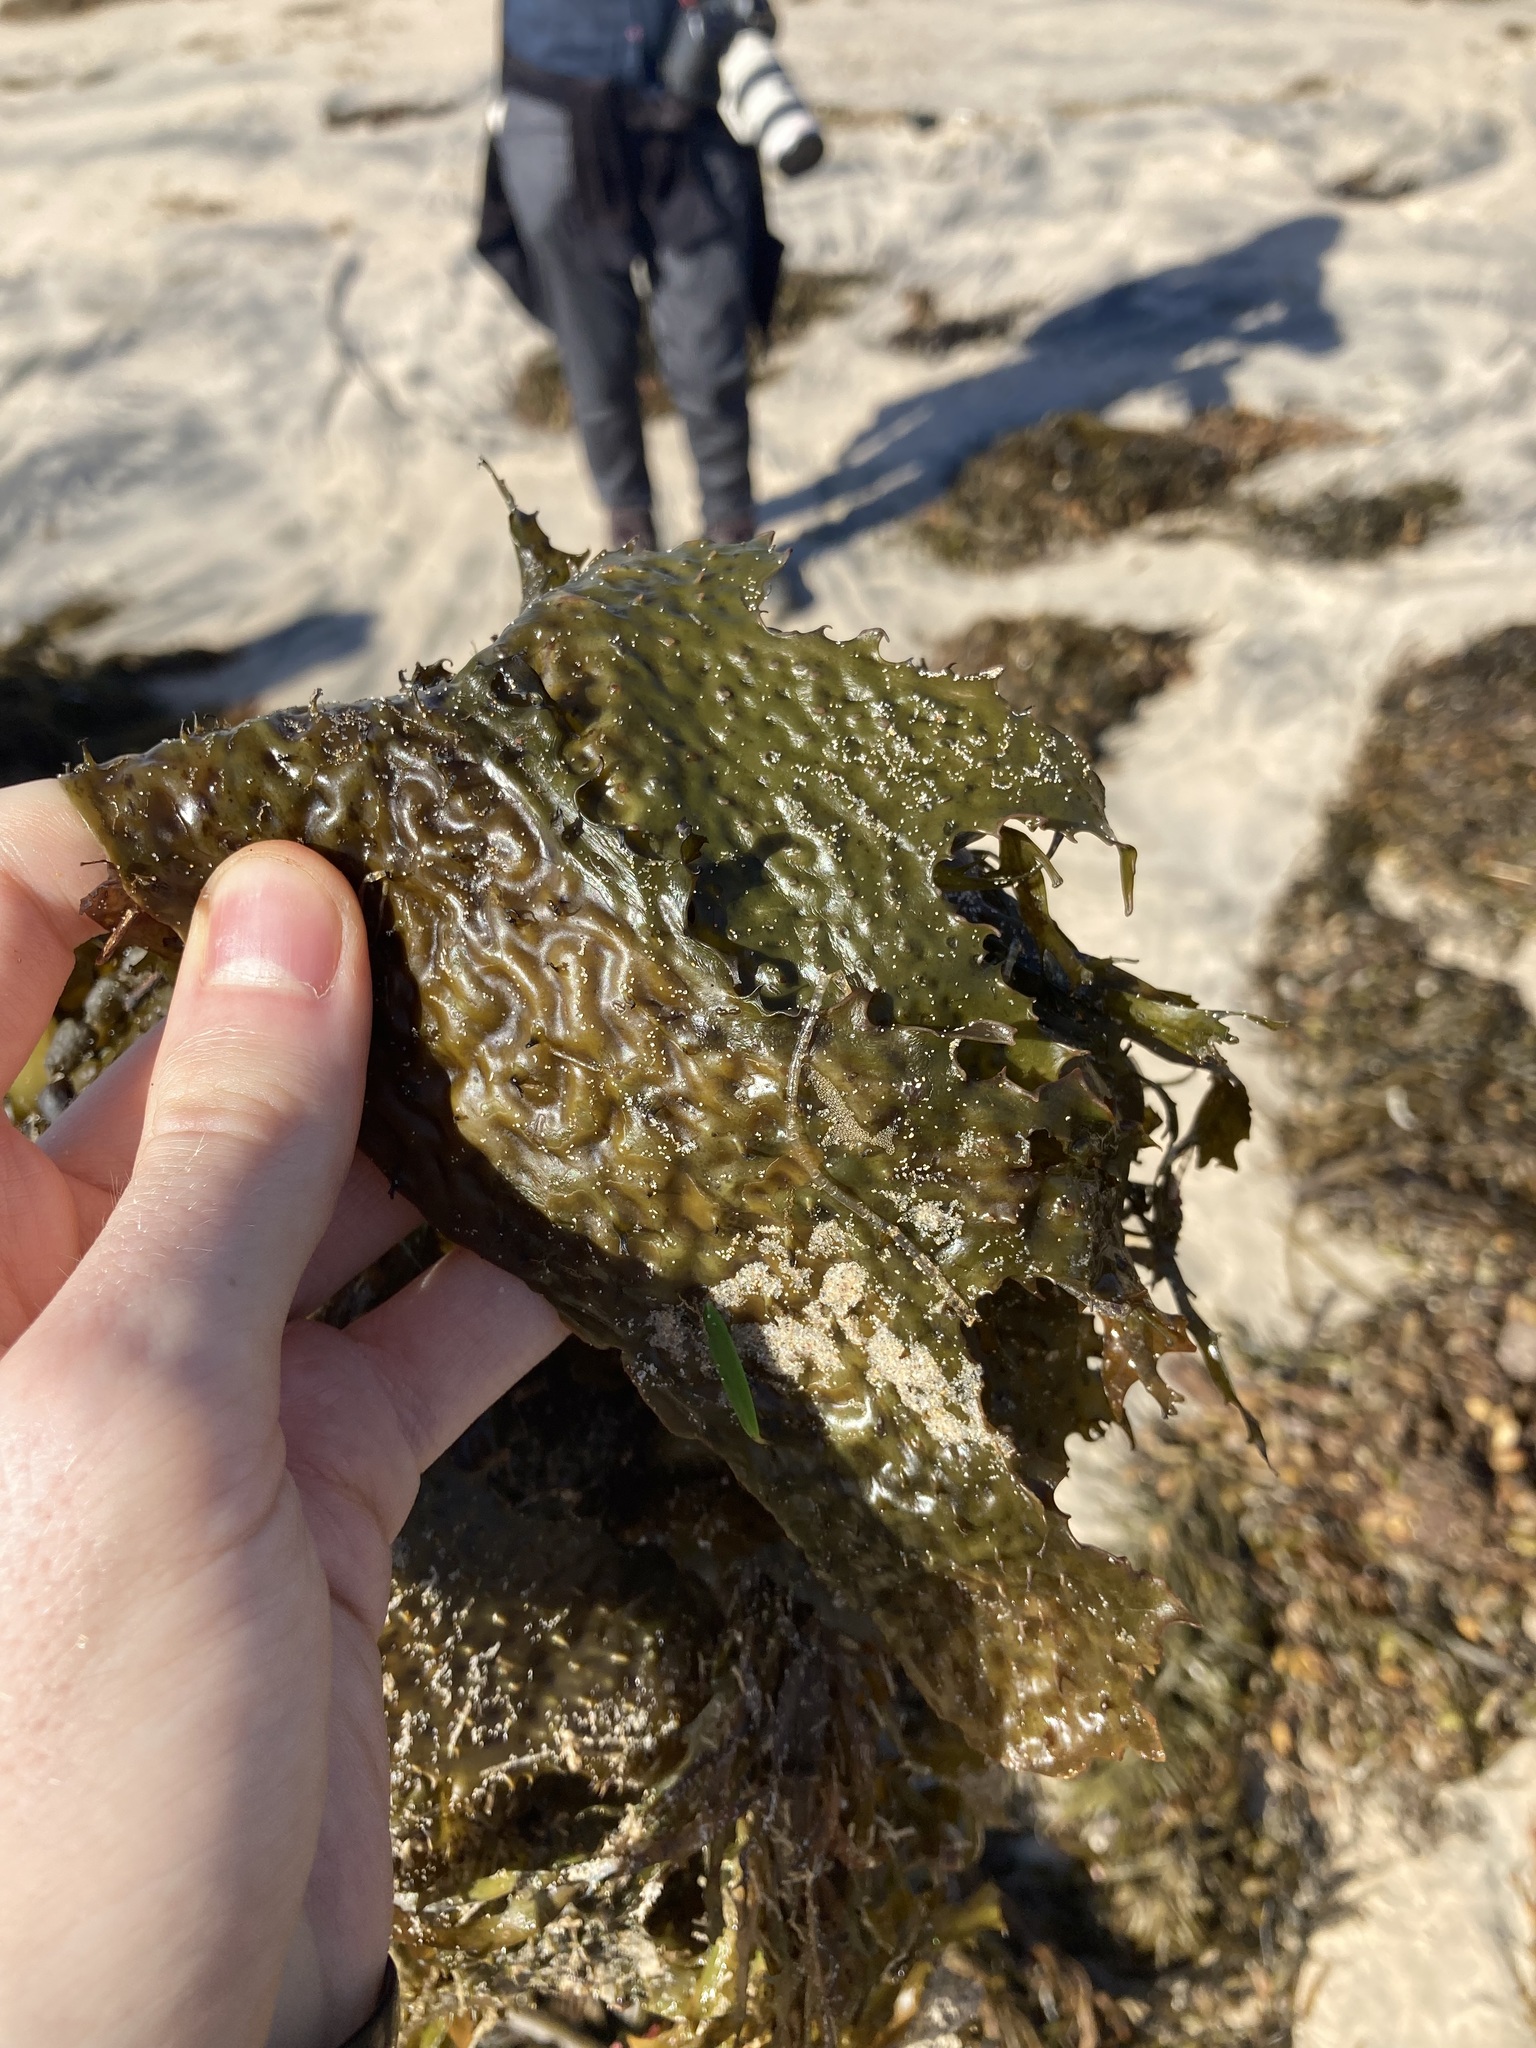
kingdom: Chromista
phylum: Ochrophyta
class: Phaeophyceae
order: Laminariales
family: Lessoniaceae
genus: Ecklonia
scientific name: Ecklonia radiata
